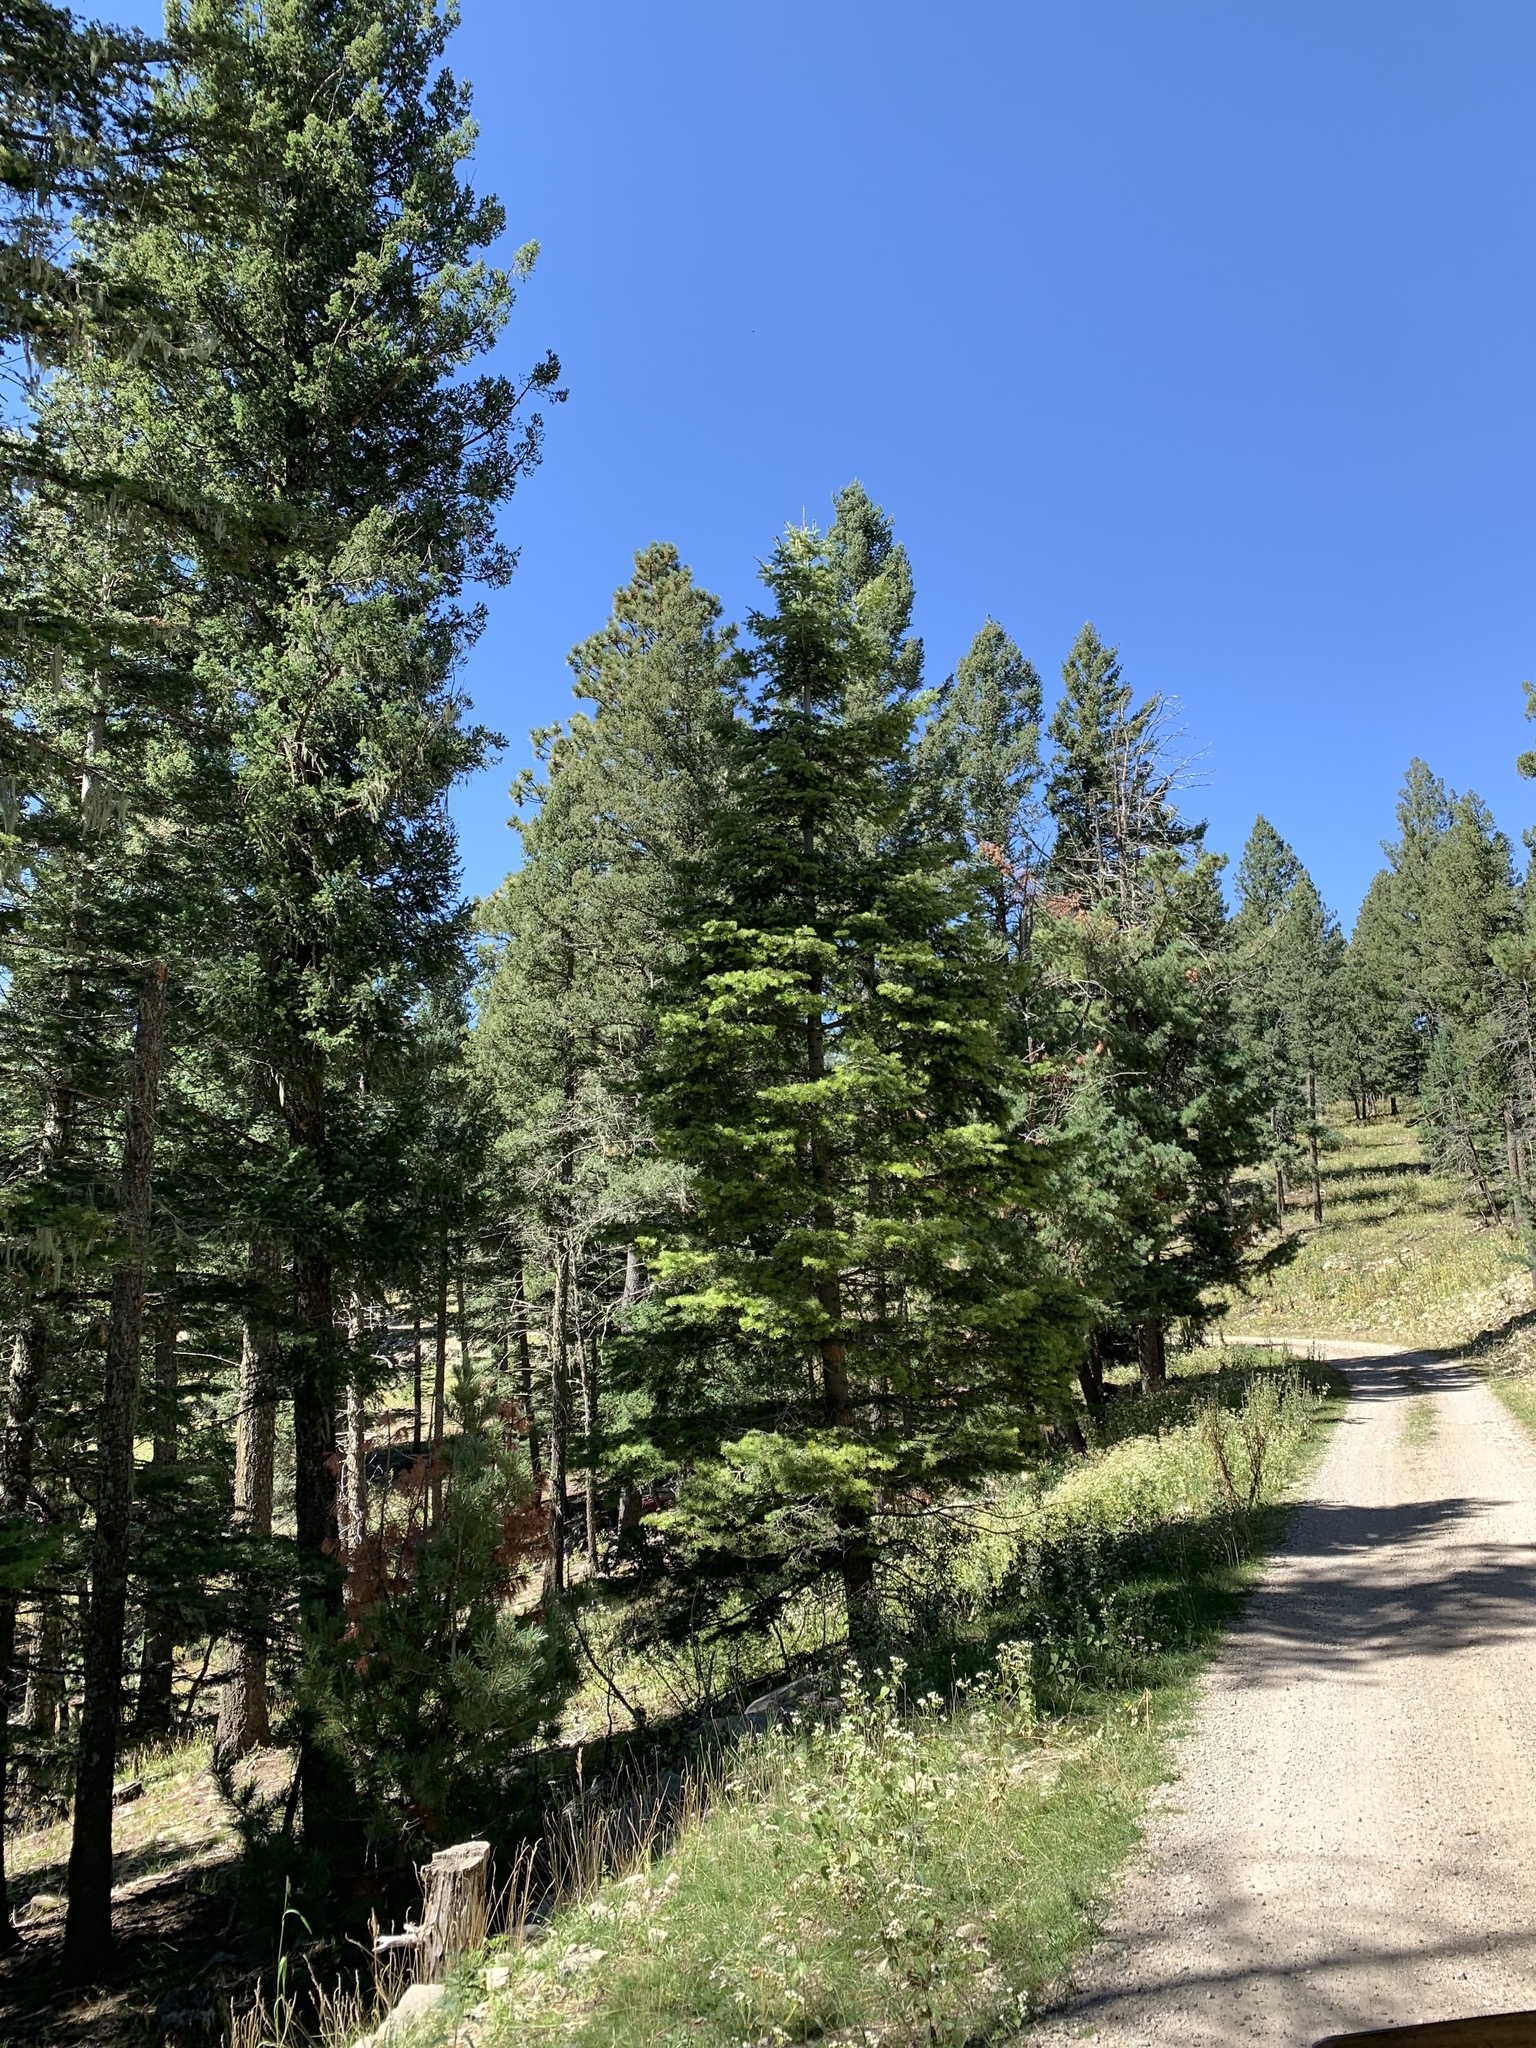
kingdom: Plantae
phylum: Tracheophyta
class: Pinopsida
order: Pinales
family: Pinaceae
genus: Abies
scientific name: Abies concolor
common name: Colorado fir
